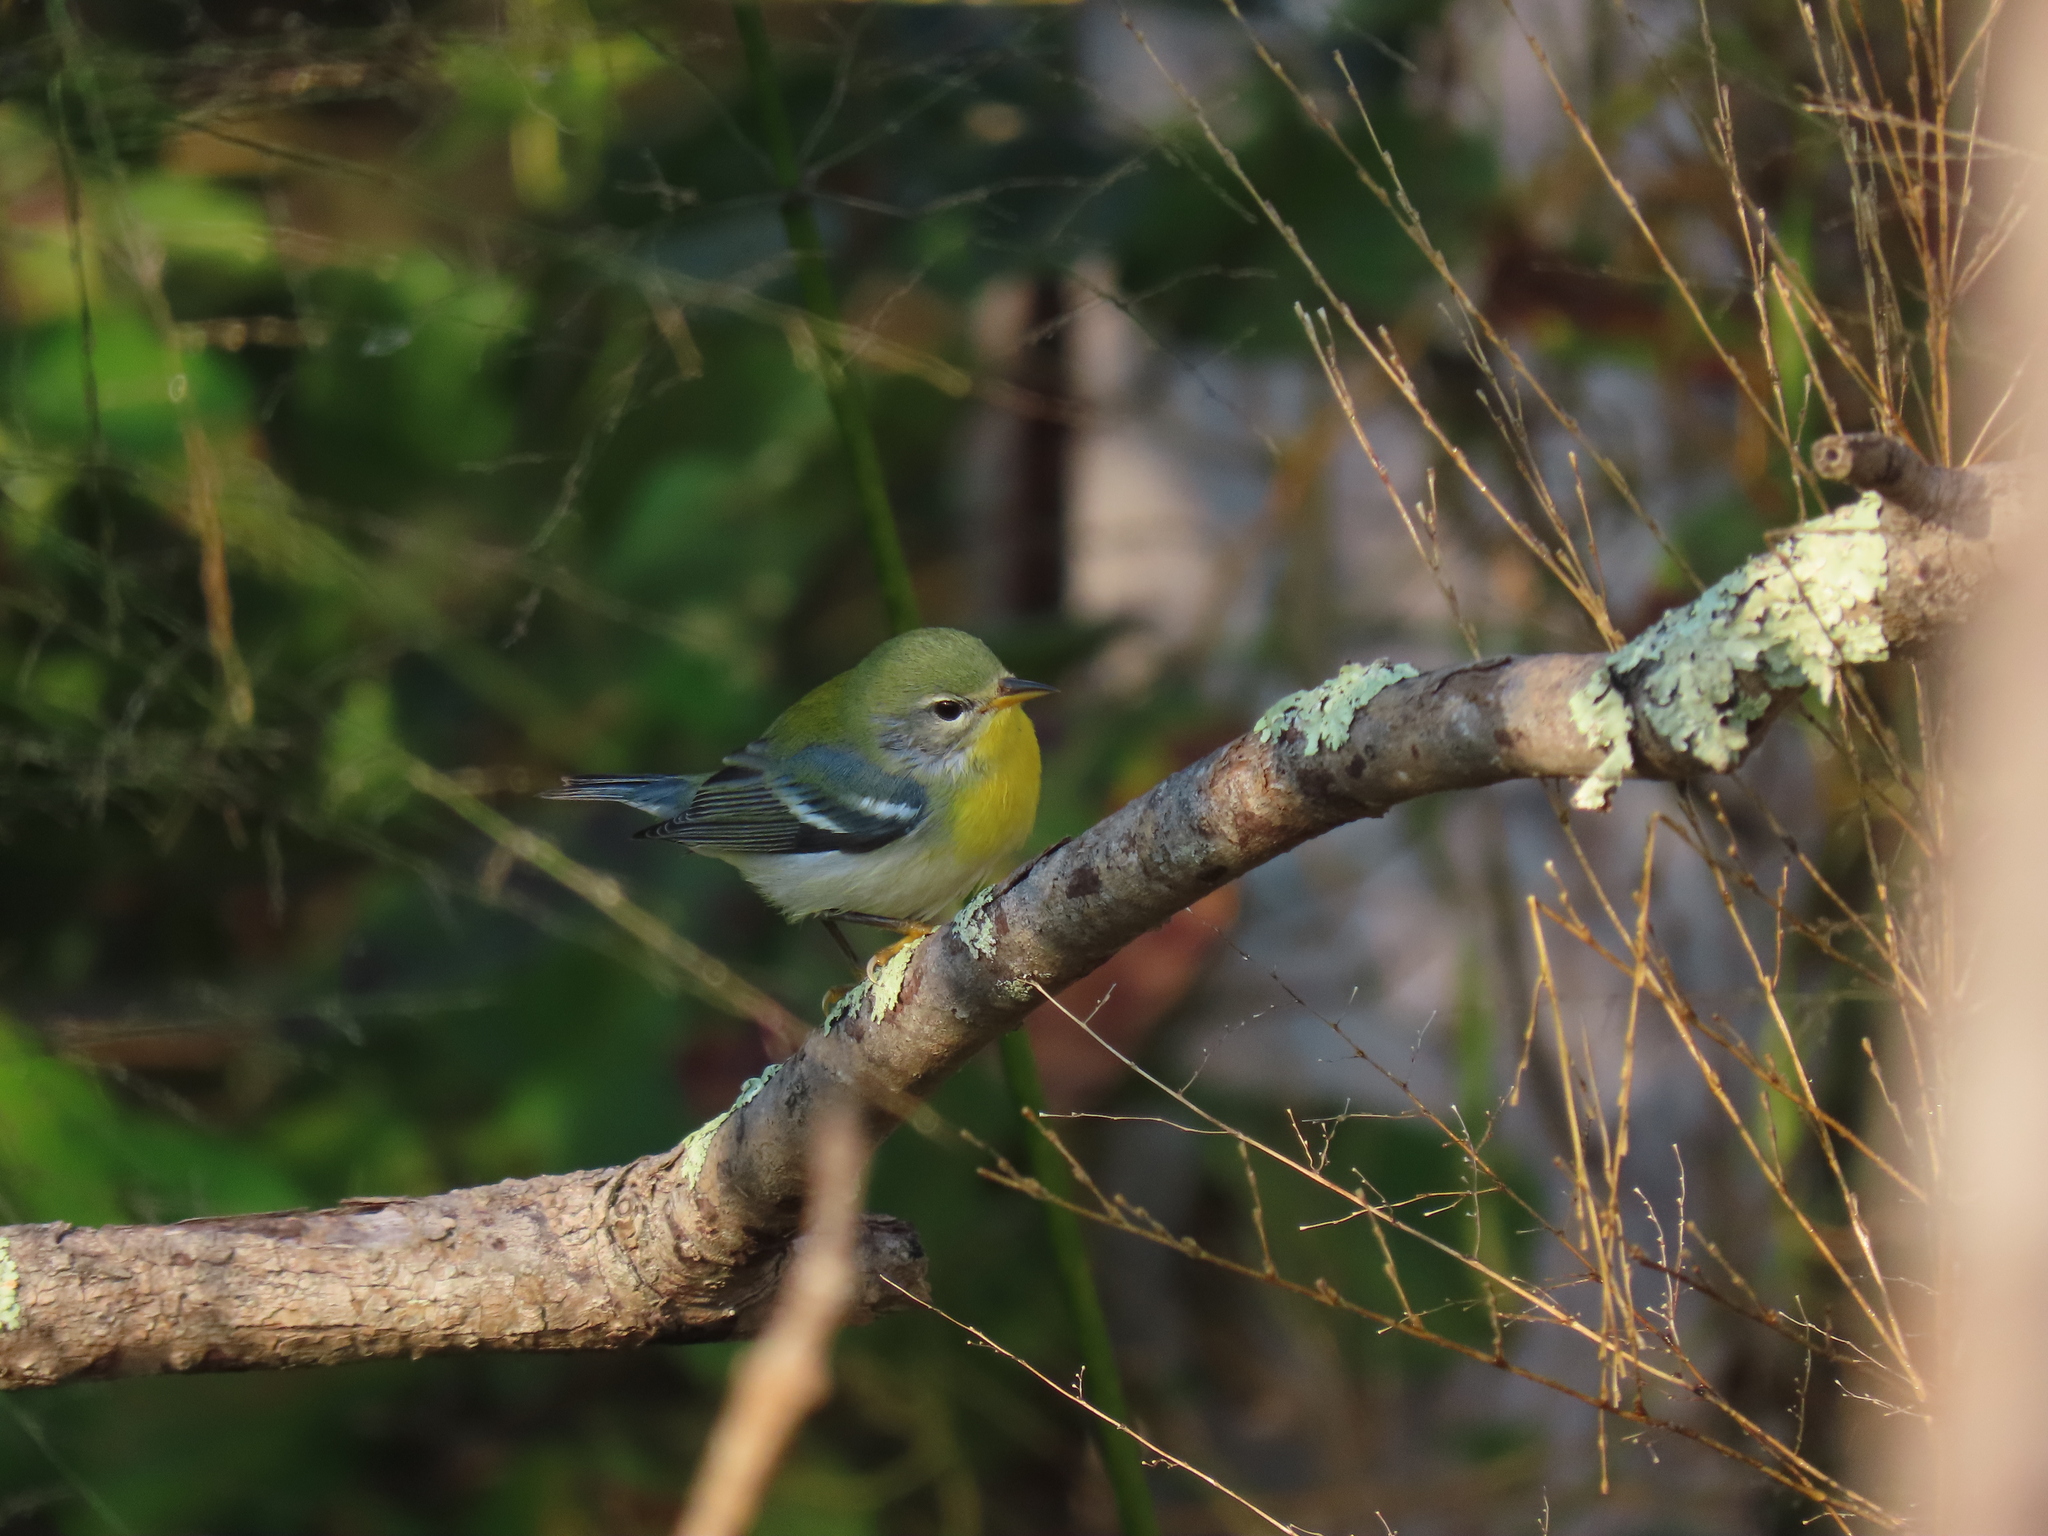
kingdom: Animalia
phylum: Chordata
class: Aves
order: Passeriformes
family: Parulidae
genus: Setophaga
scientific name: Setophaga americana
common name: Northern parula
